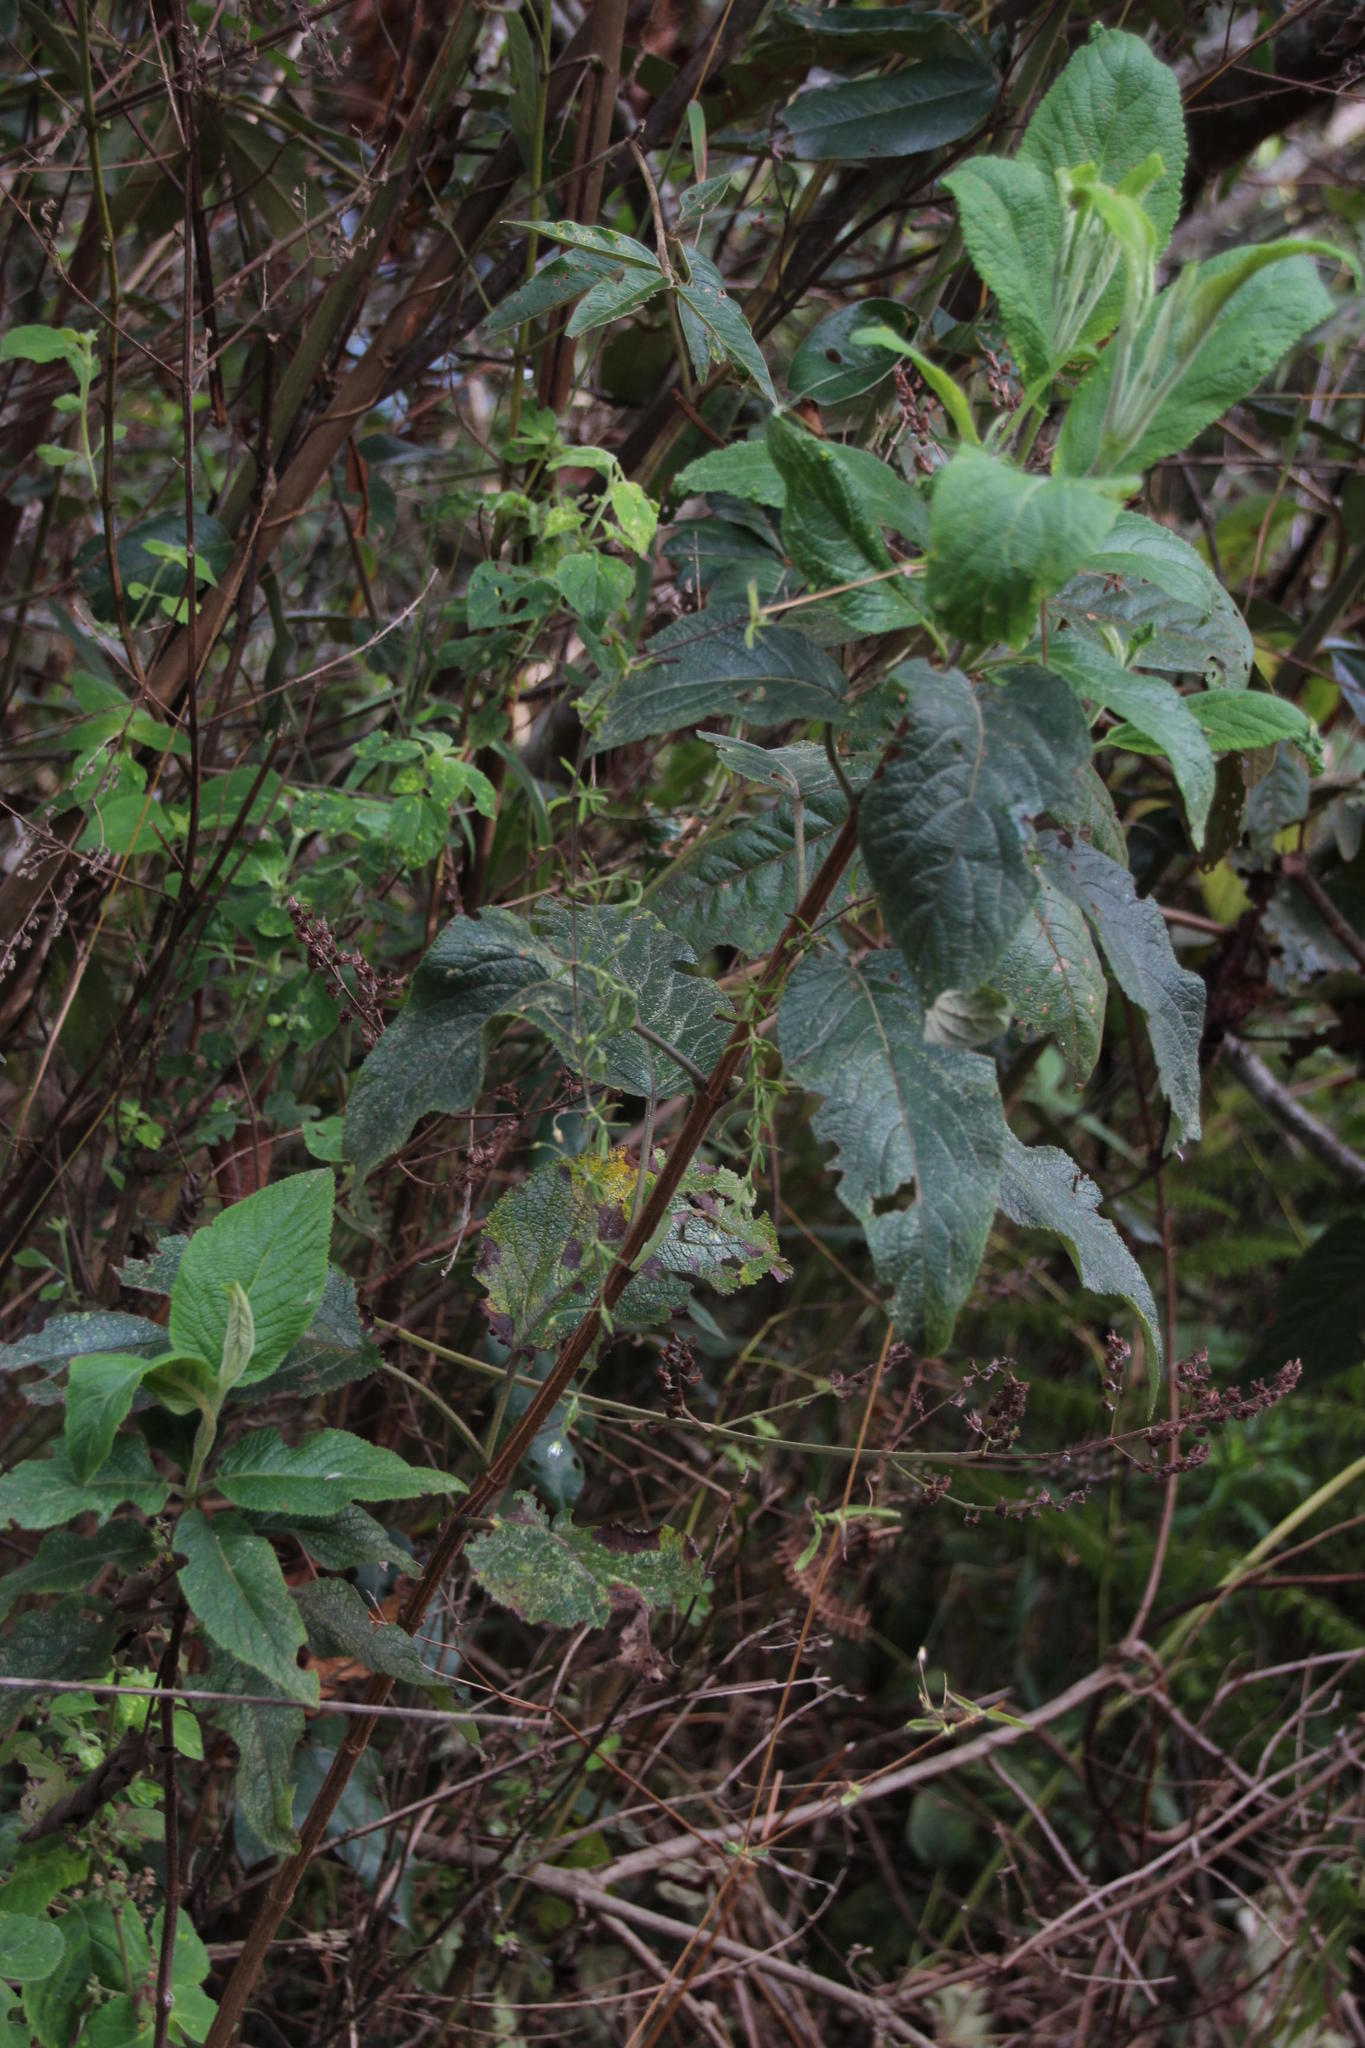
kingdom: Plantae
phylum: Tracheophyta
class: Magnoliopsida
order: Caryophyllales
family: Caryophyllaceae
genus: Arenaria
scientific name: Arenaria lanuginosa
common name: Spread sandwort
